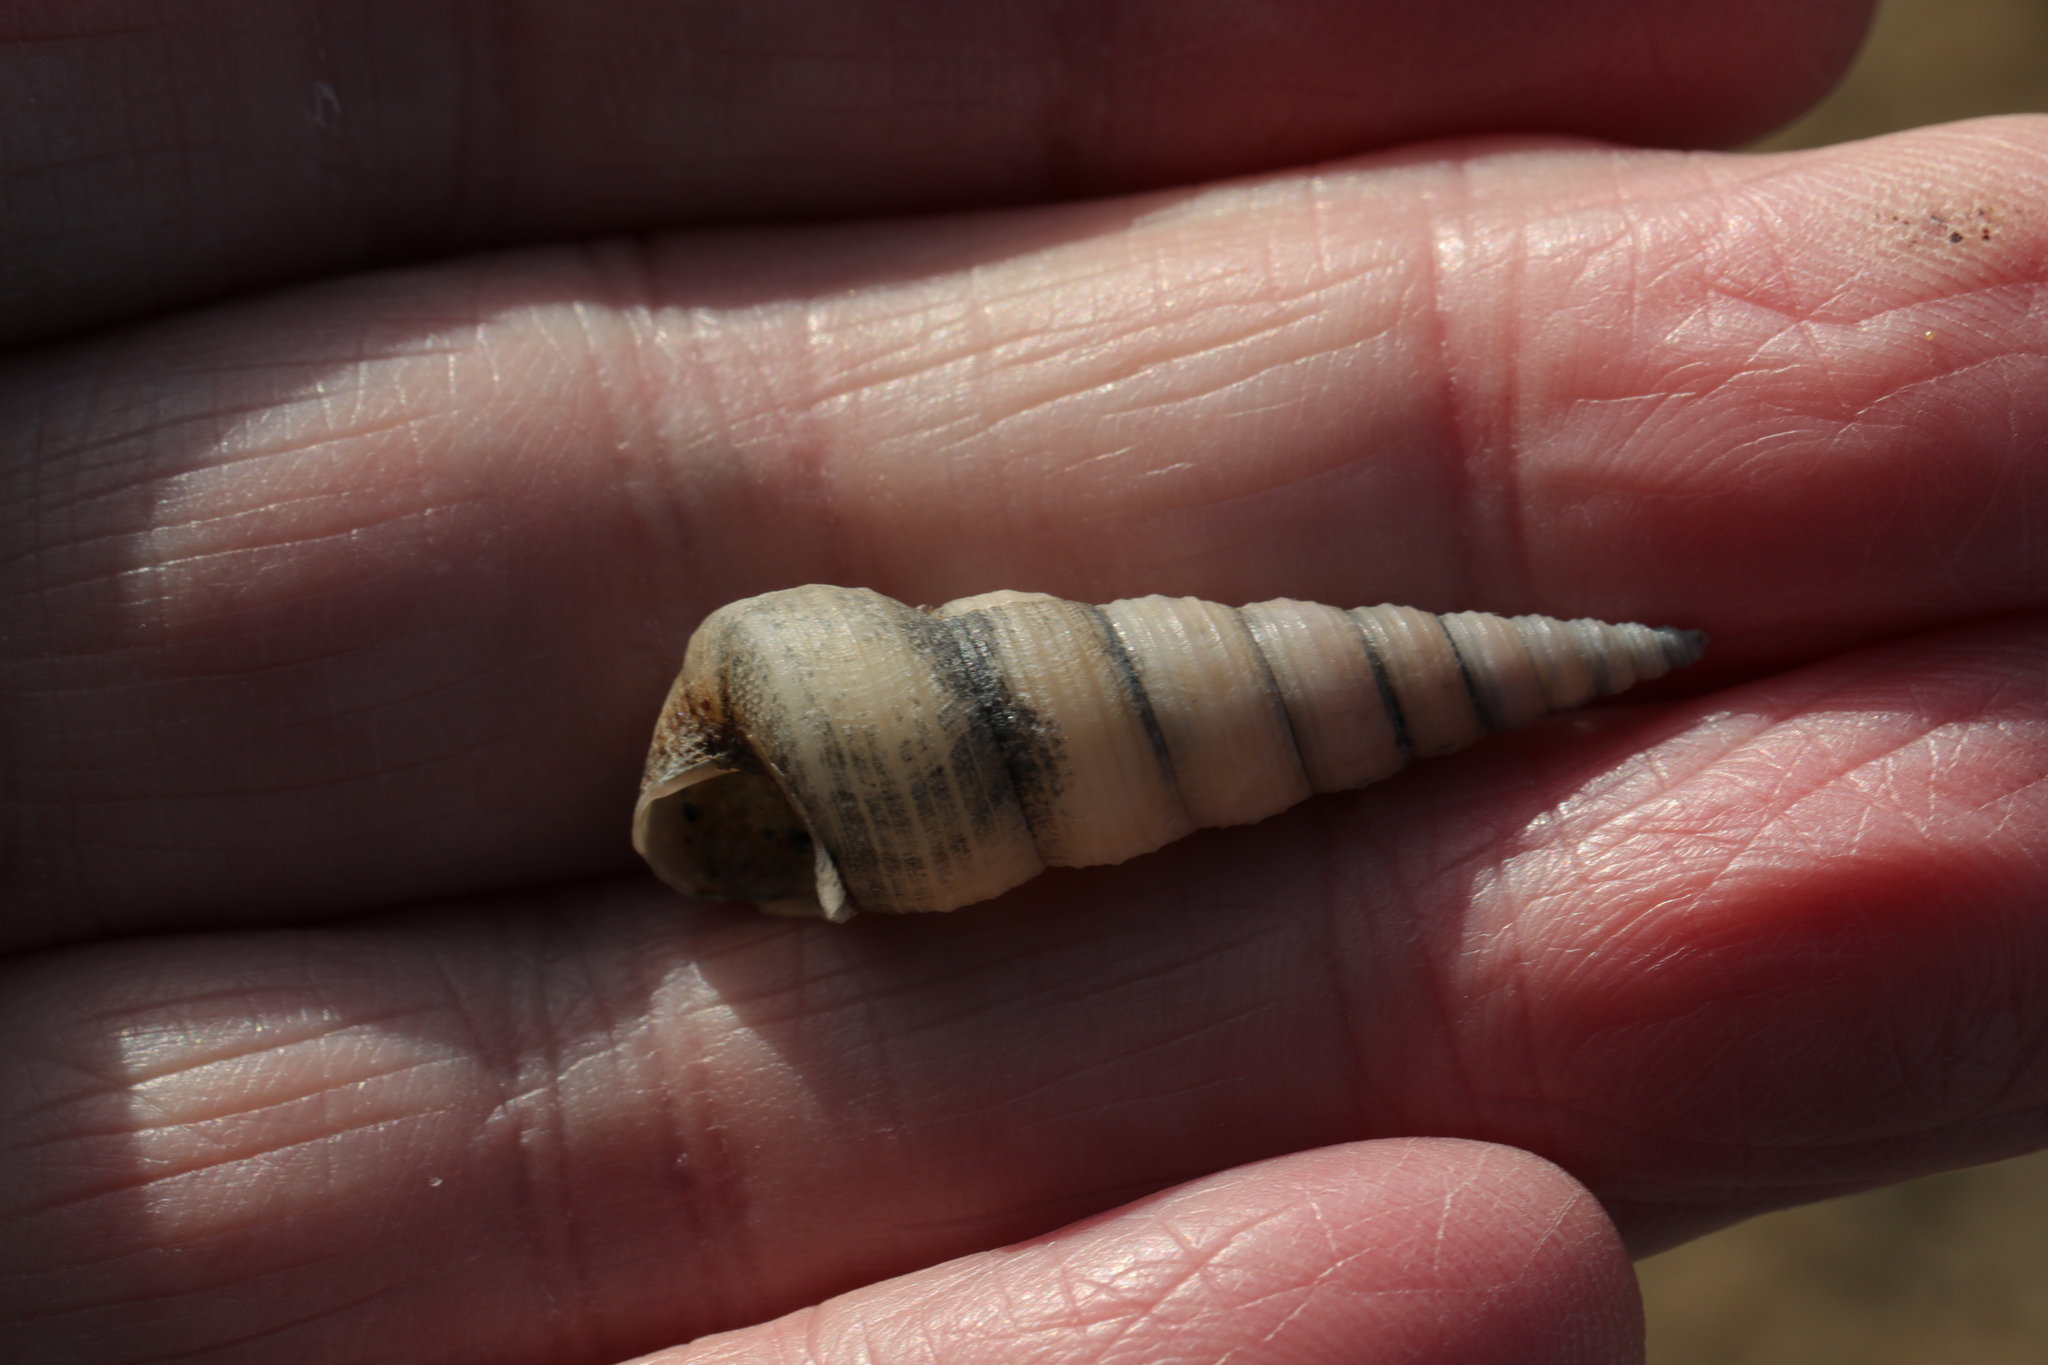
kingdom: Animalia
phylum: Mollusca
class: Gastropoda
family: Turritellidae
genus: Turritellinella
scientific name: Turritellinella tricarinata
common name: Auger shell
